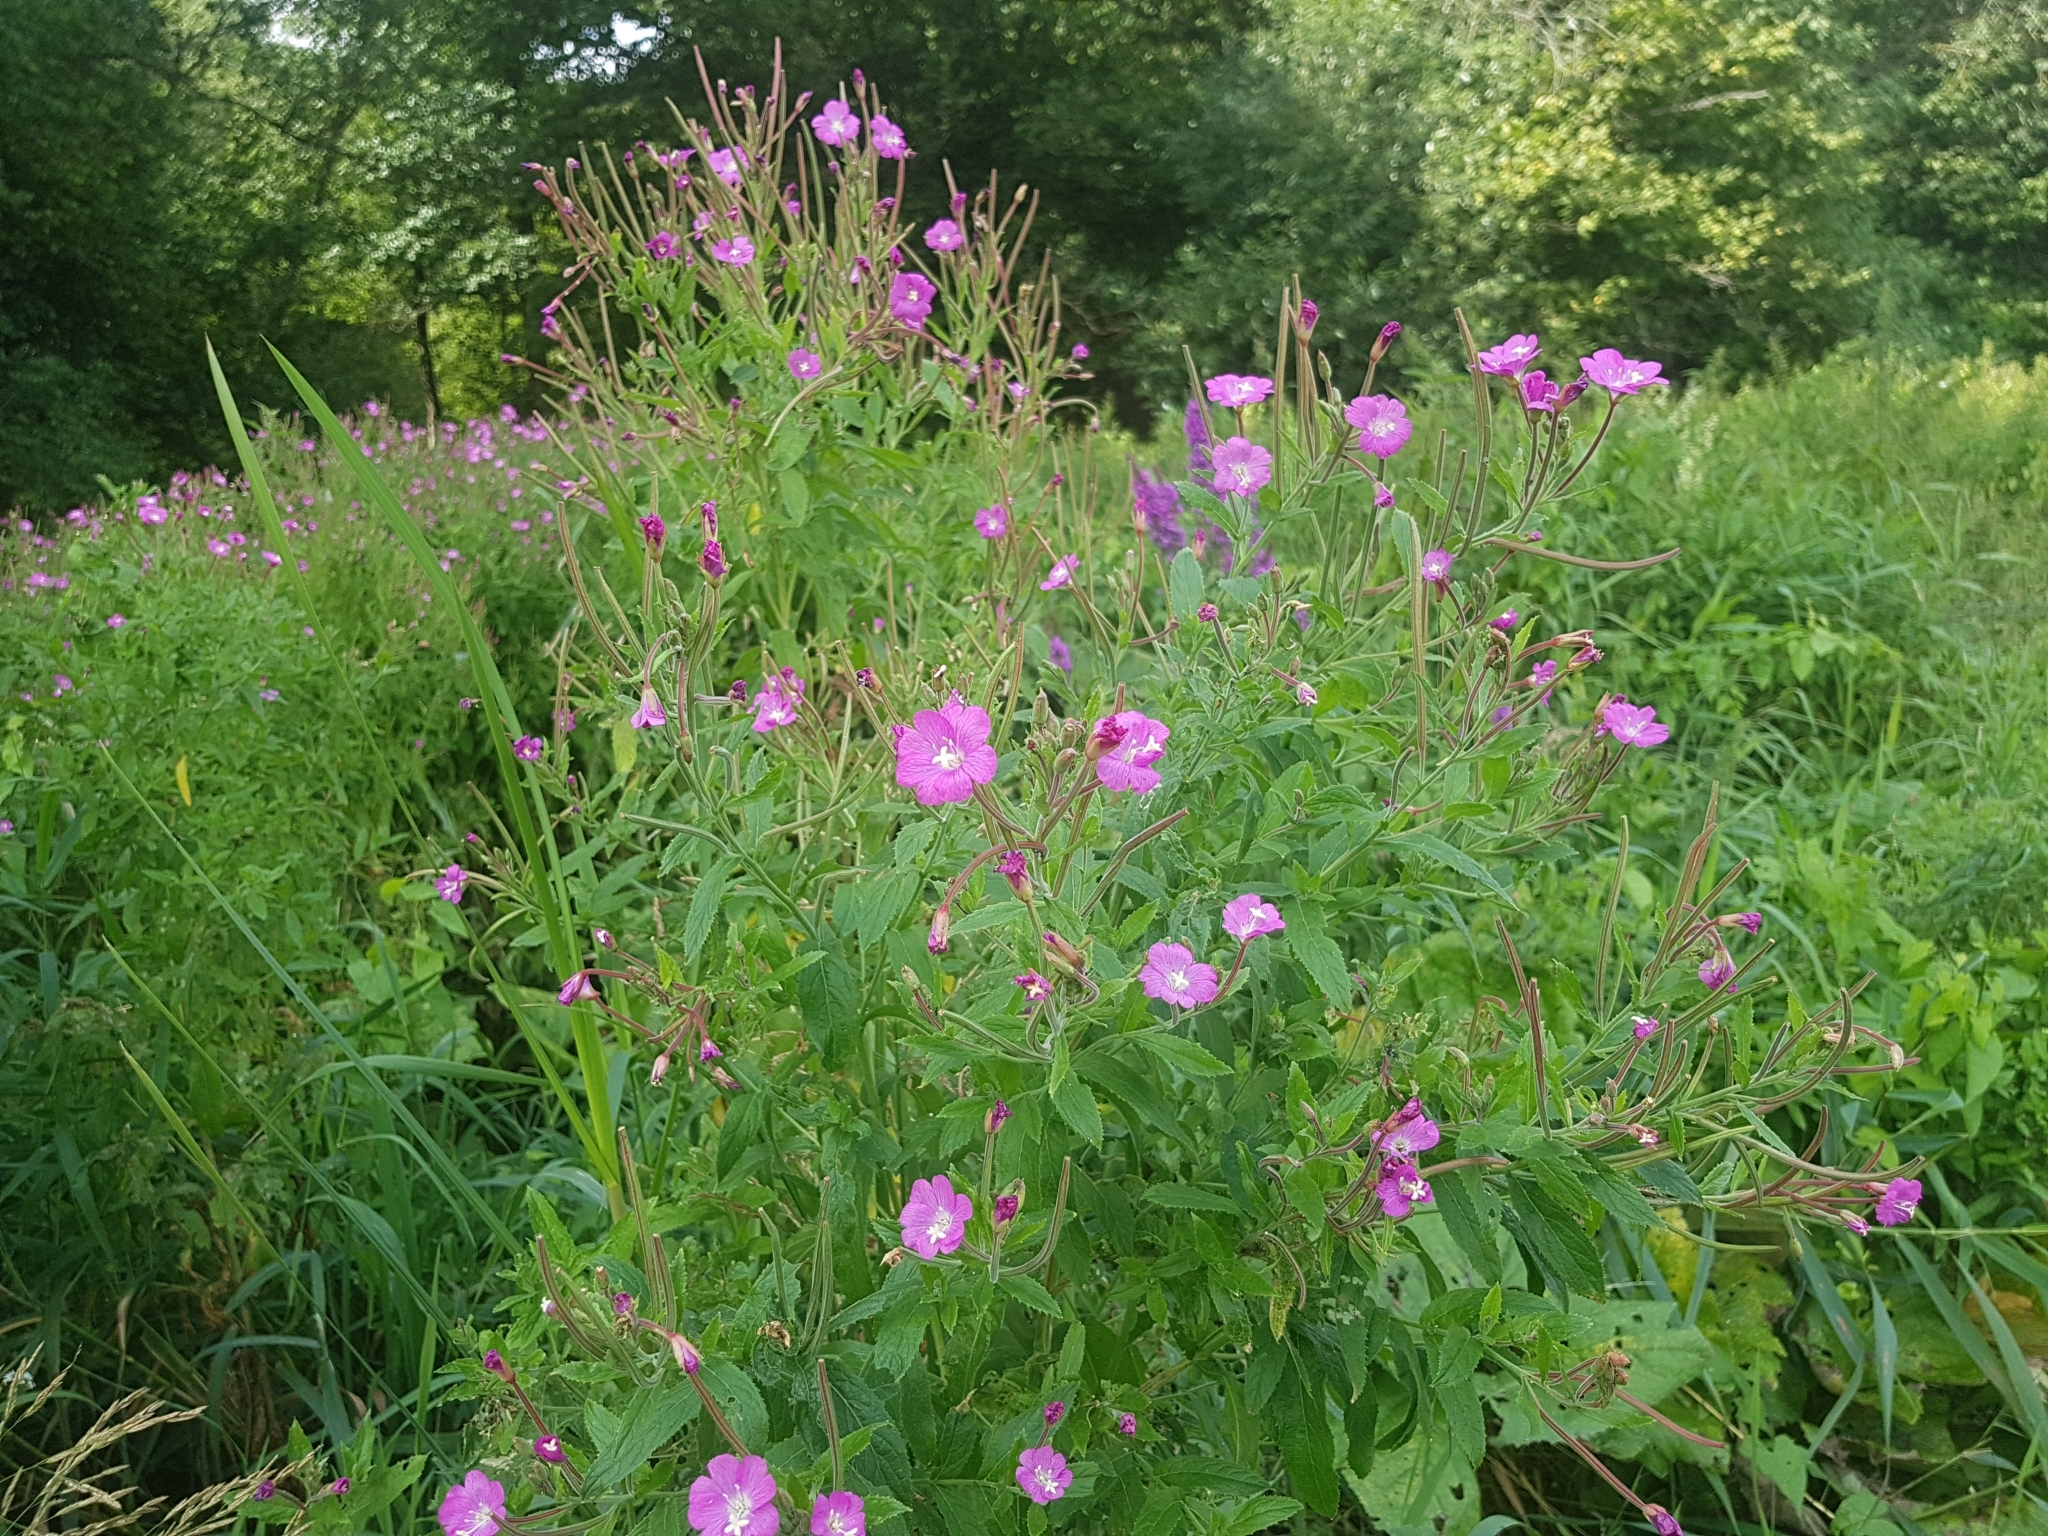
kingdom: Plantae
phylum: Tracheophyta
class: Magnoliopsida
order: Myrtales
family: Onagraceae
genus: Epilobium
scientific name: Epilobium hirsutum
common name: Great willowherb
